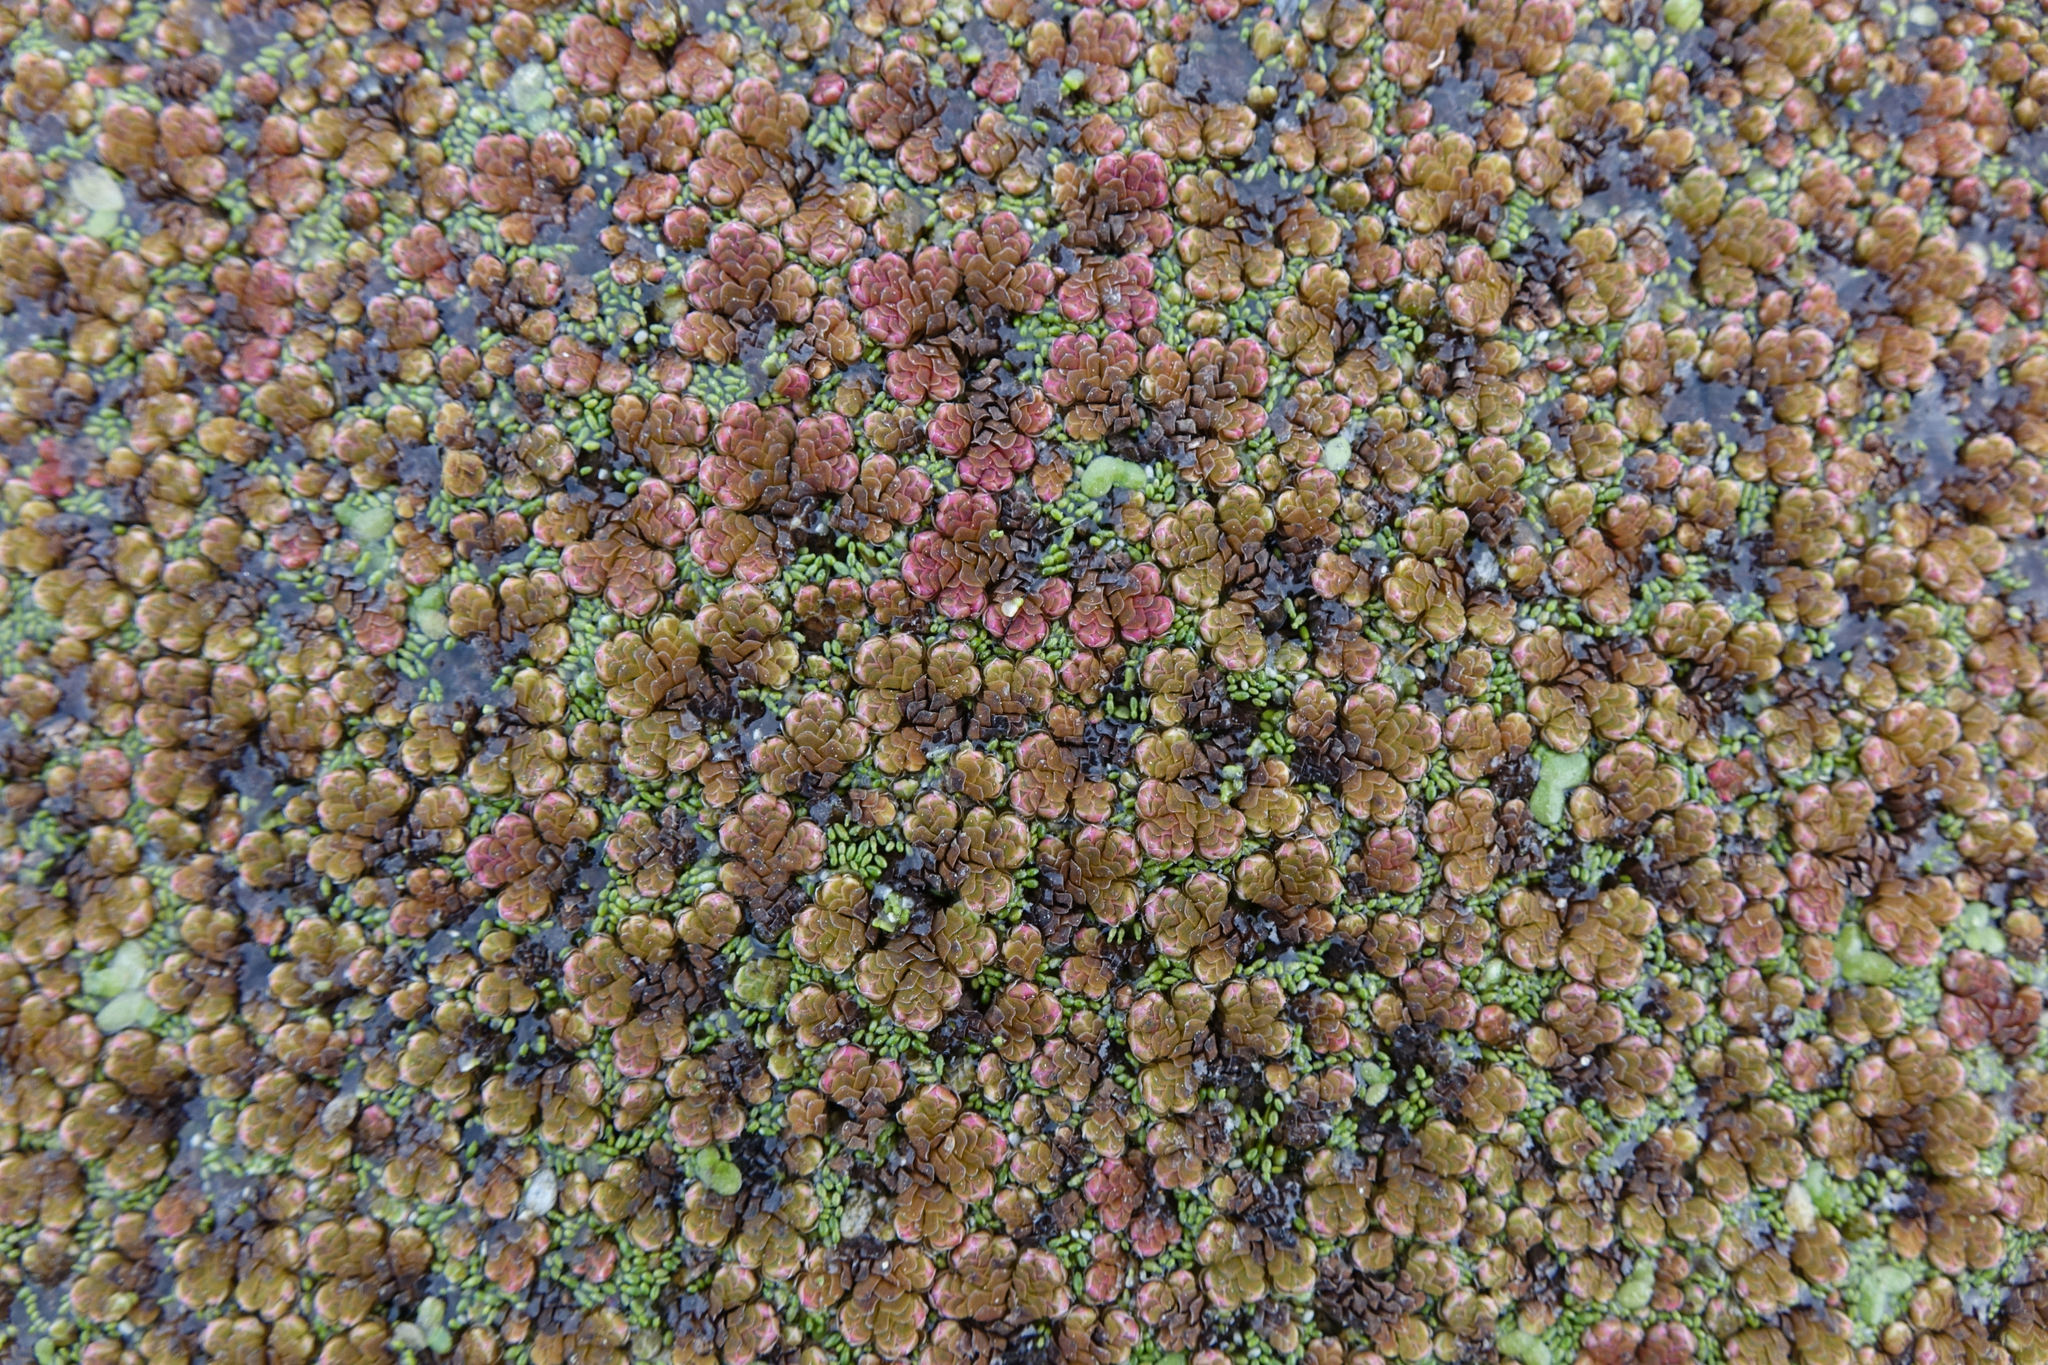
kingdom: Plantae
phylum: Tracheophyta
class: Polypodiopsida
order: Salviniales
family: Salviniaceae
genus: Azolla
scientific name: Azolla rubra
